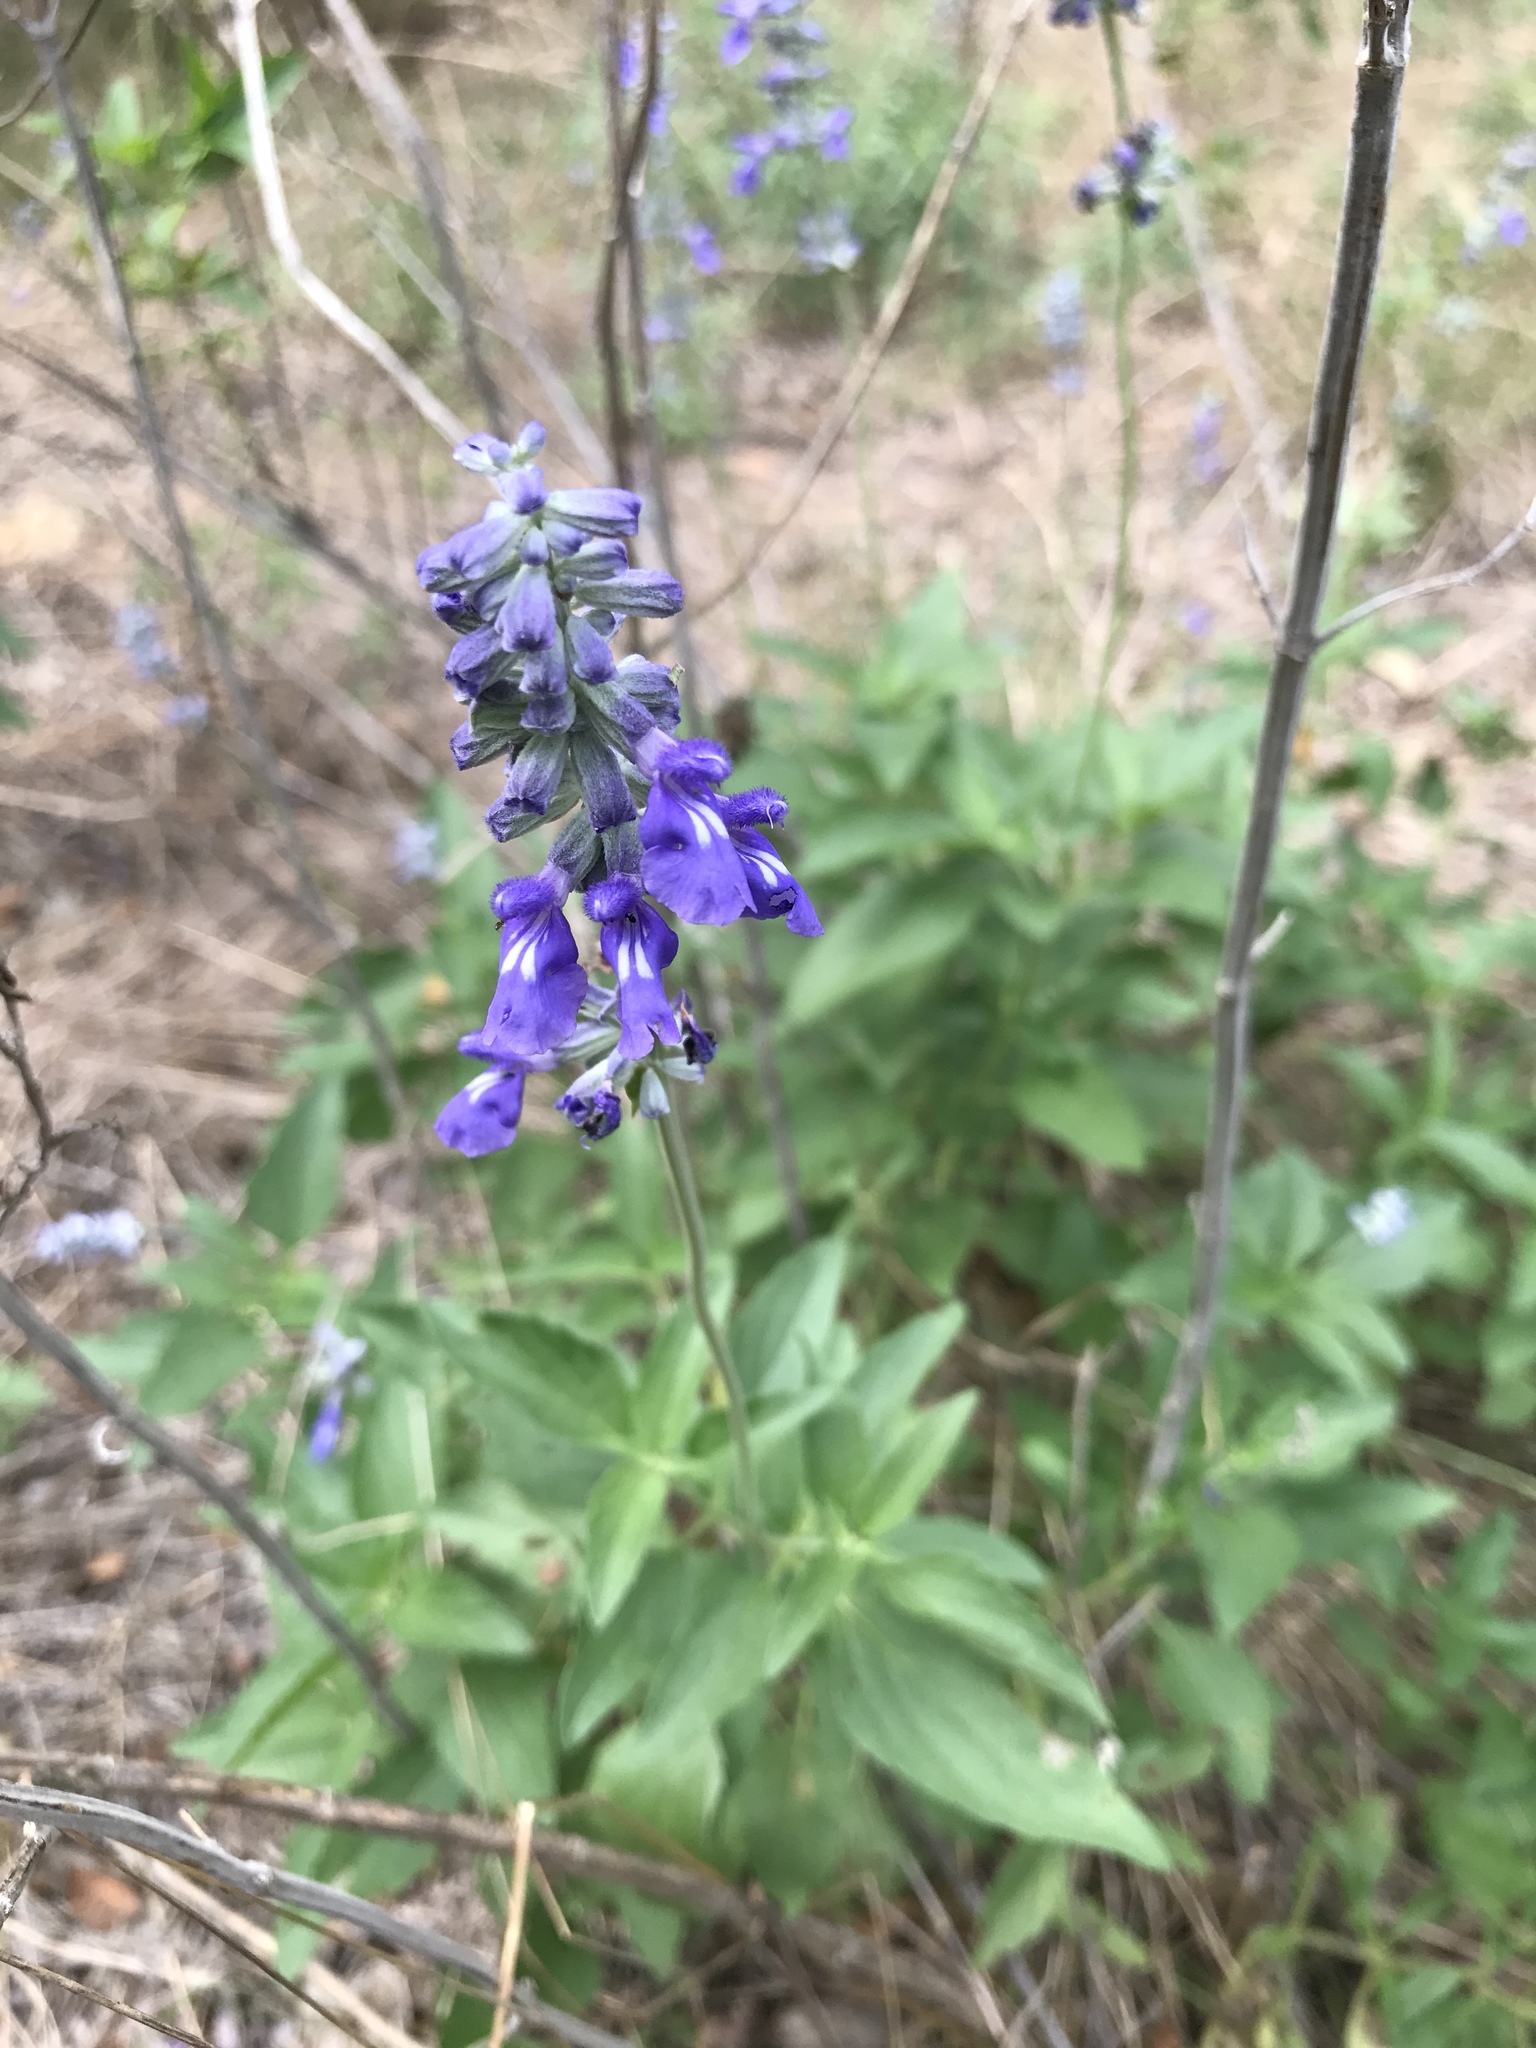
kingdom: Plantae
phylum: Tracheophyta
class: Magnoliopsida
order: Lamiales
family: Lamiaceae
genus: Salvia
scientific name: Salvia farinacea
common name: Mealy sage
